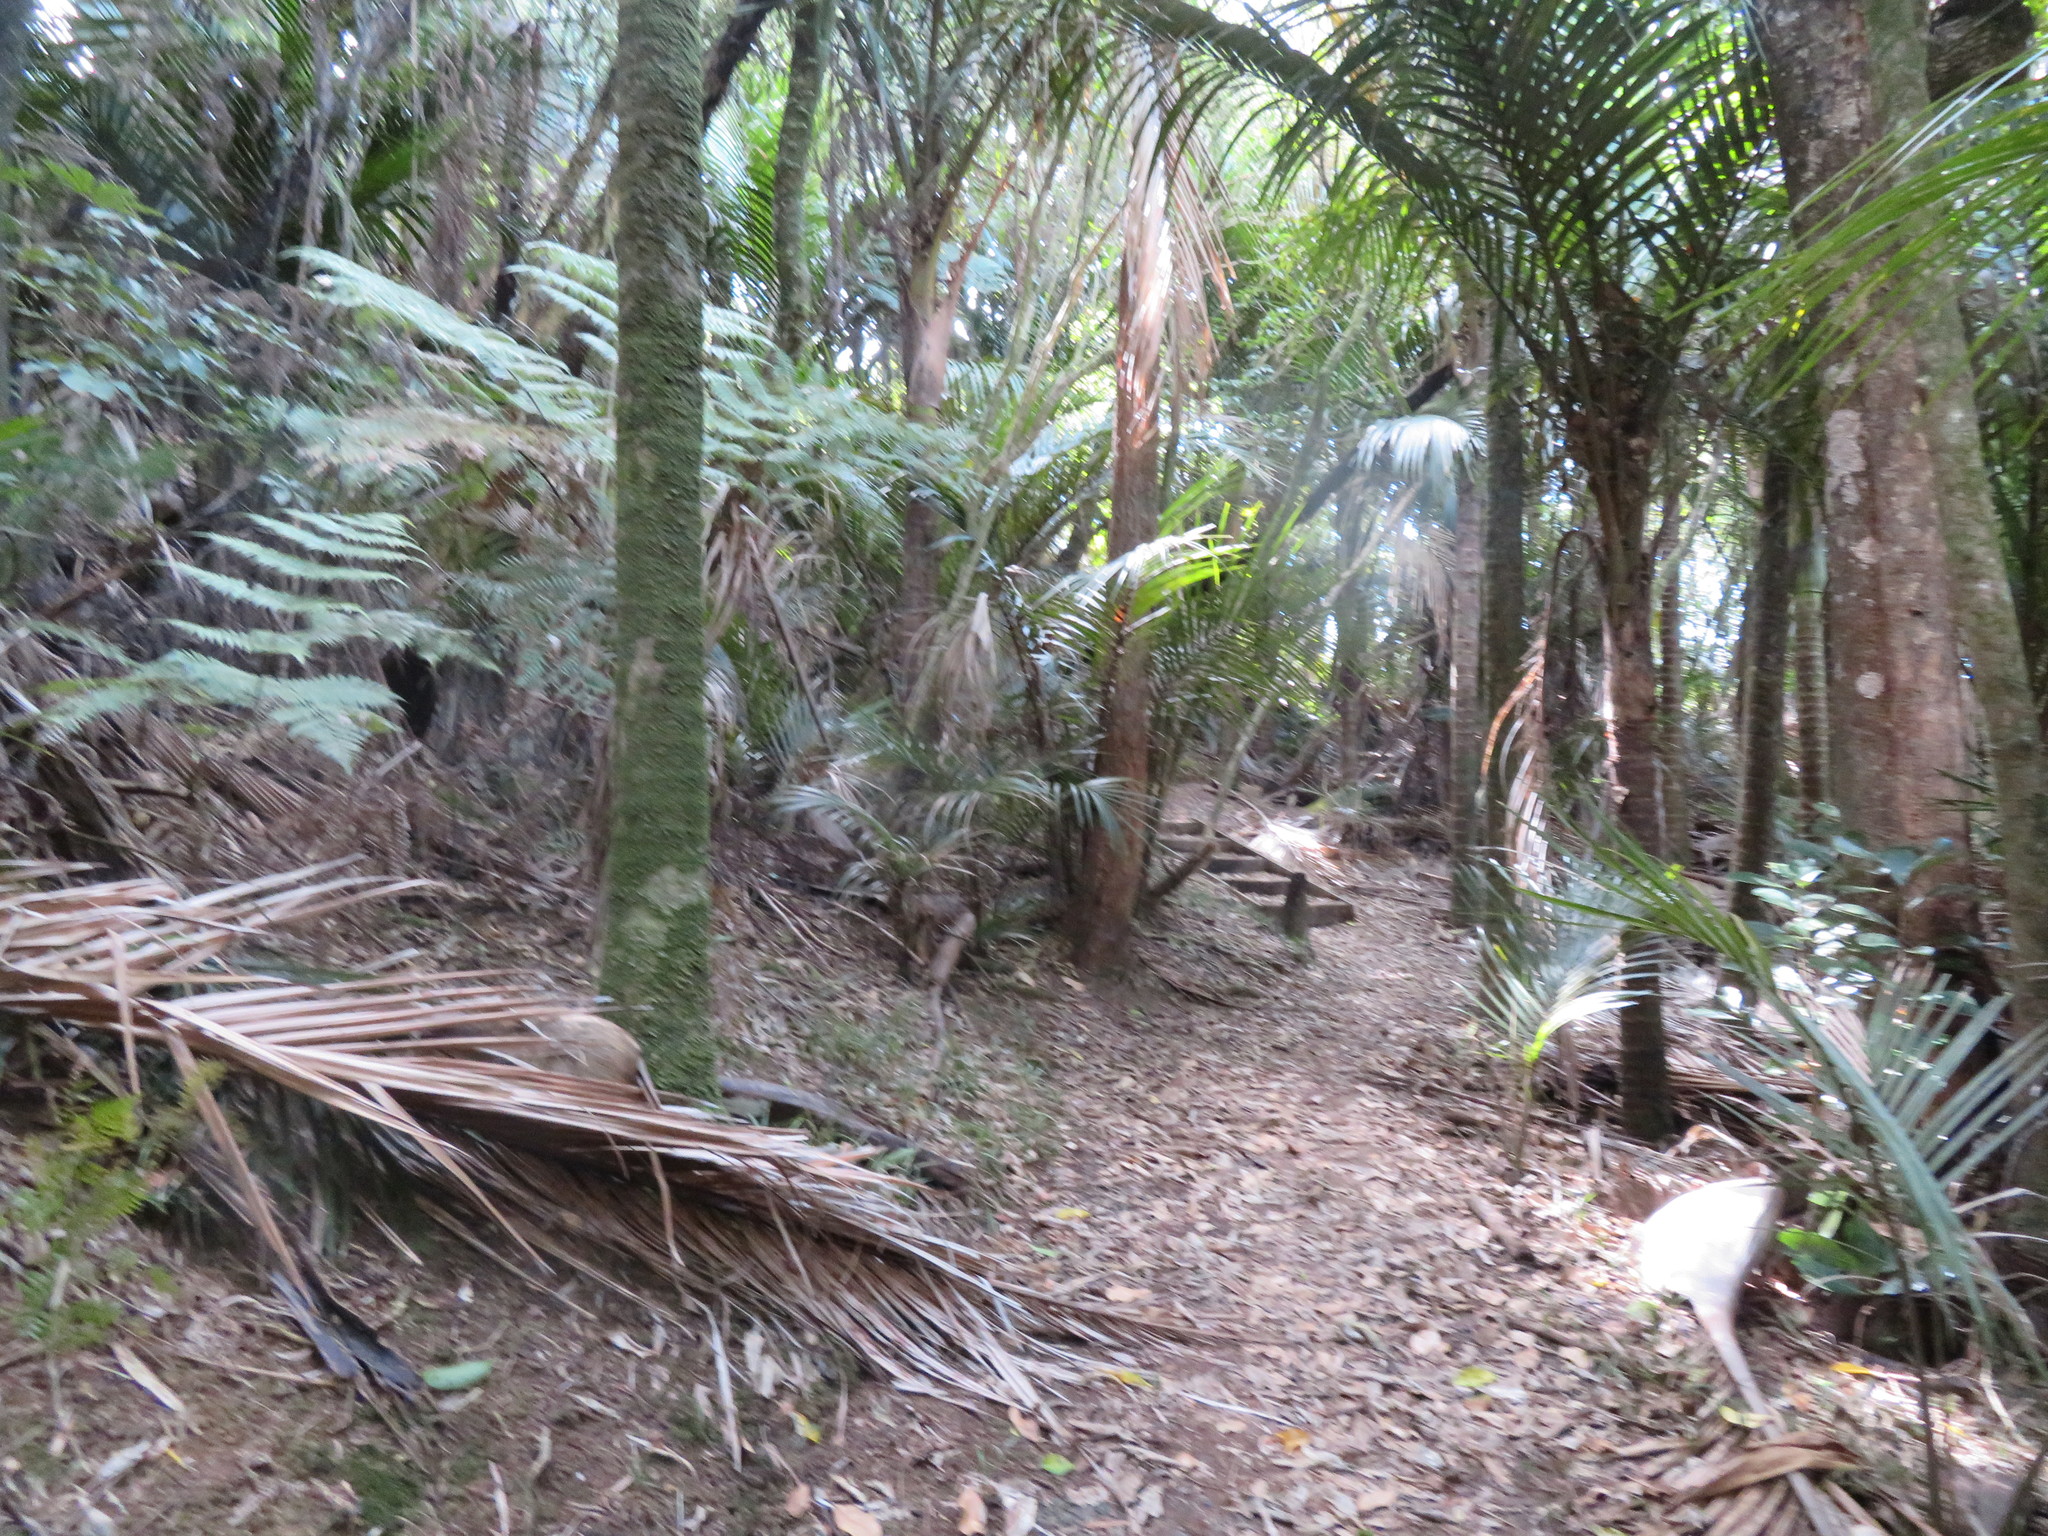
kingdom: Plantae
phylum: Tracheophyta
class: Liliopsida
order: Arecales
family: Arecaceae
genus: Rhopalostylis
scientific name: Rhopalostylis sapida
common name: Feather-duster palm
